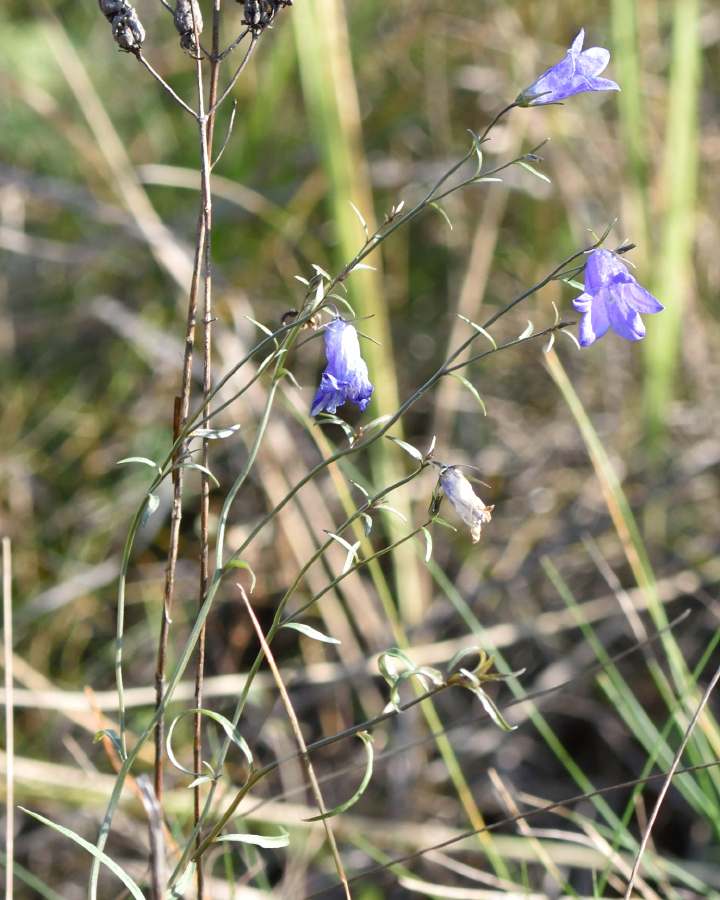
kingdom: Plantae
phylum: Tracheophyta
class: Magnoliopsida
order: Asterales
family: Campanulaceae
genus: Campanula
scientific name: Campanula rotundifolia
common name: Harebell
